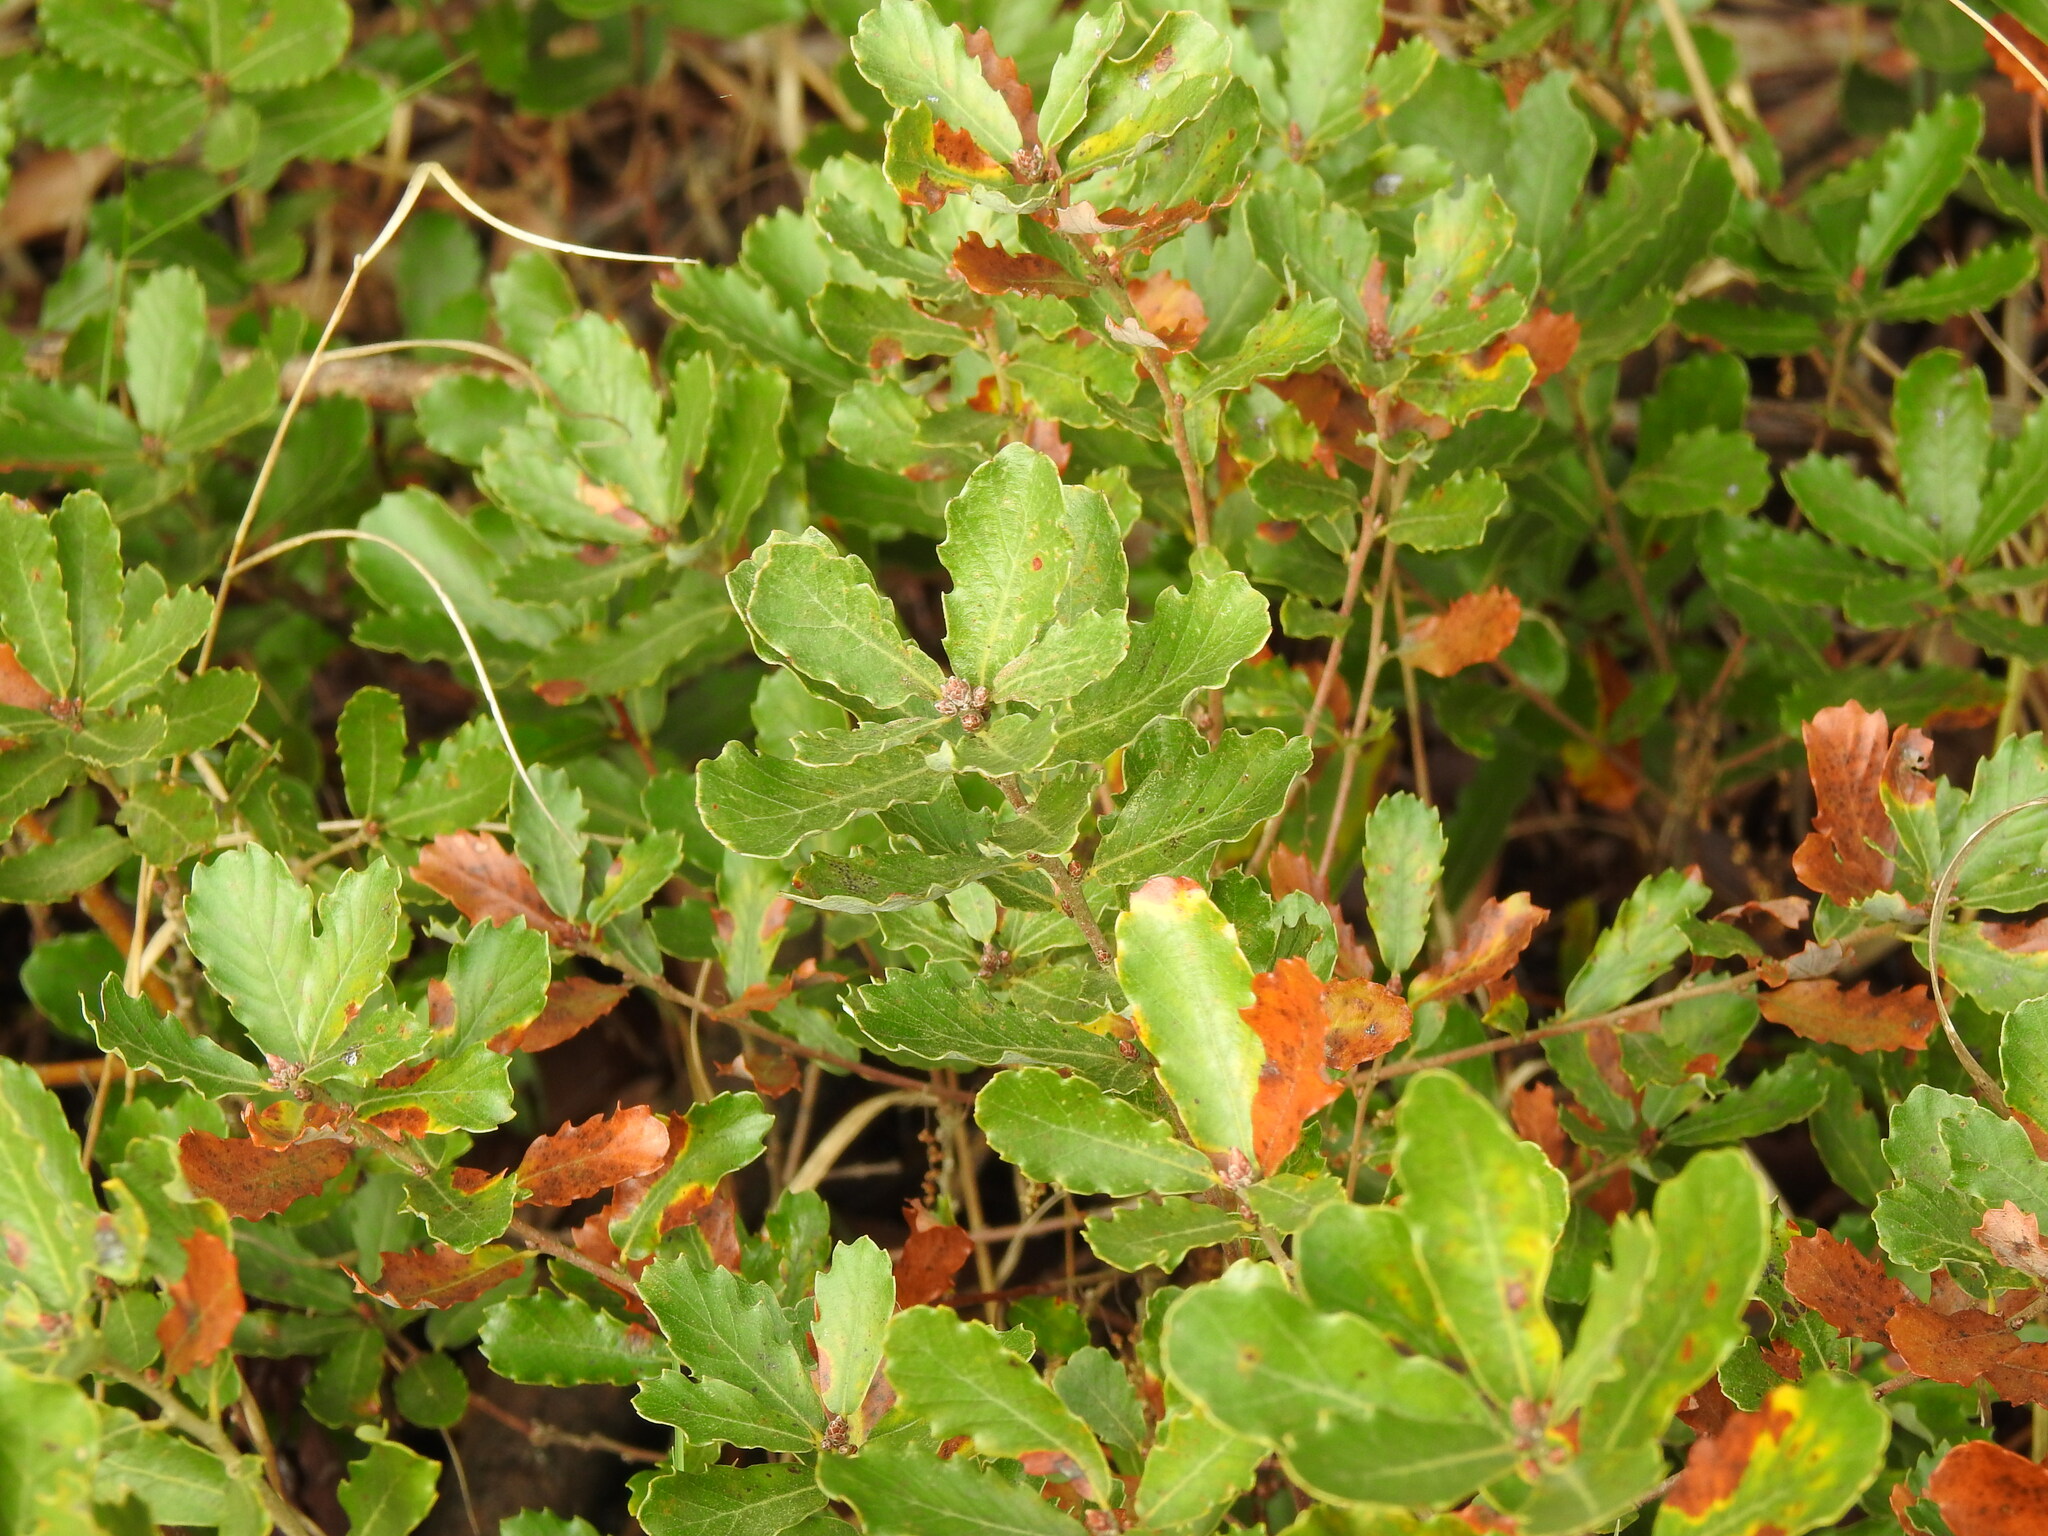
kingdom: Plantae
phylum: Tracheophyta
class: Magnoliopsida
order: Fagales
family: Fagaceae
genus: Quercus
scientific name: Quercus lusitanica
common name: Scrub gall oak
